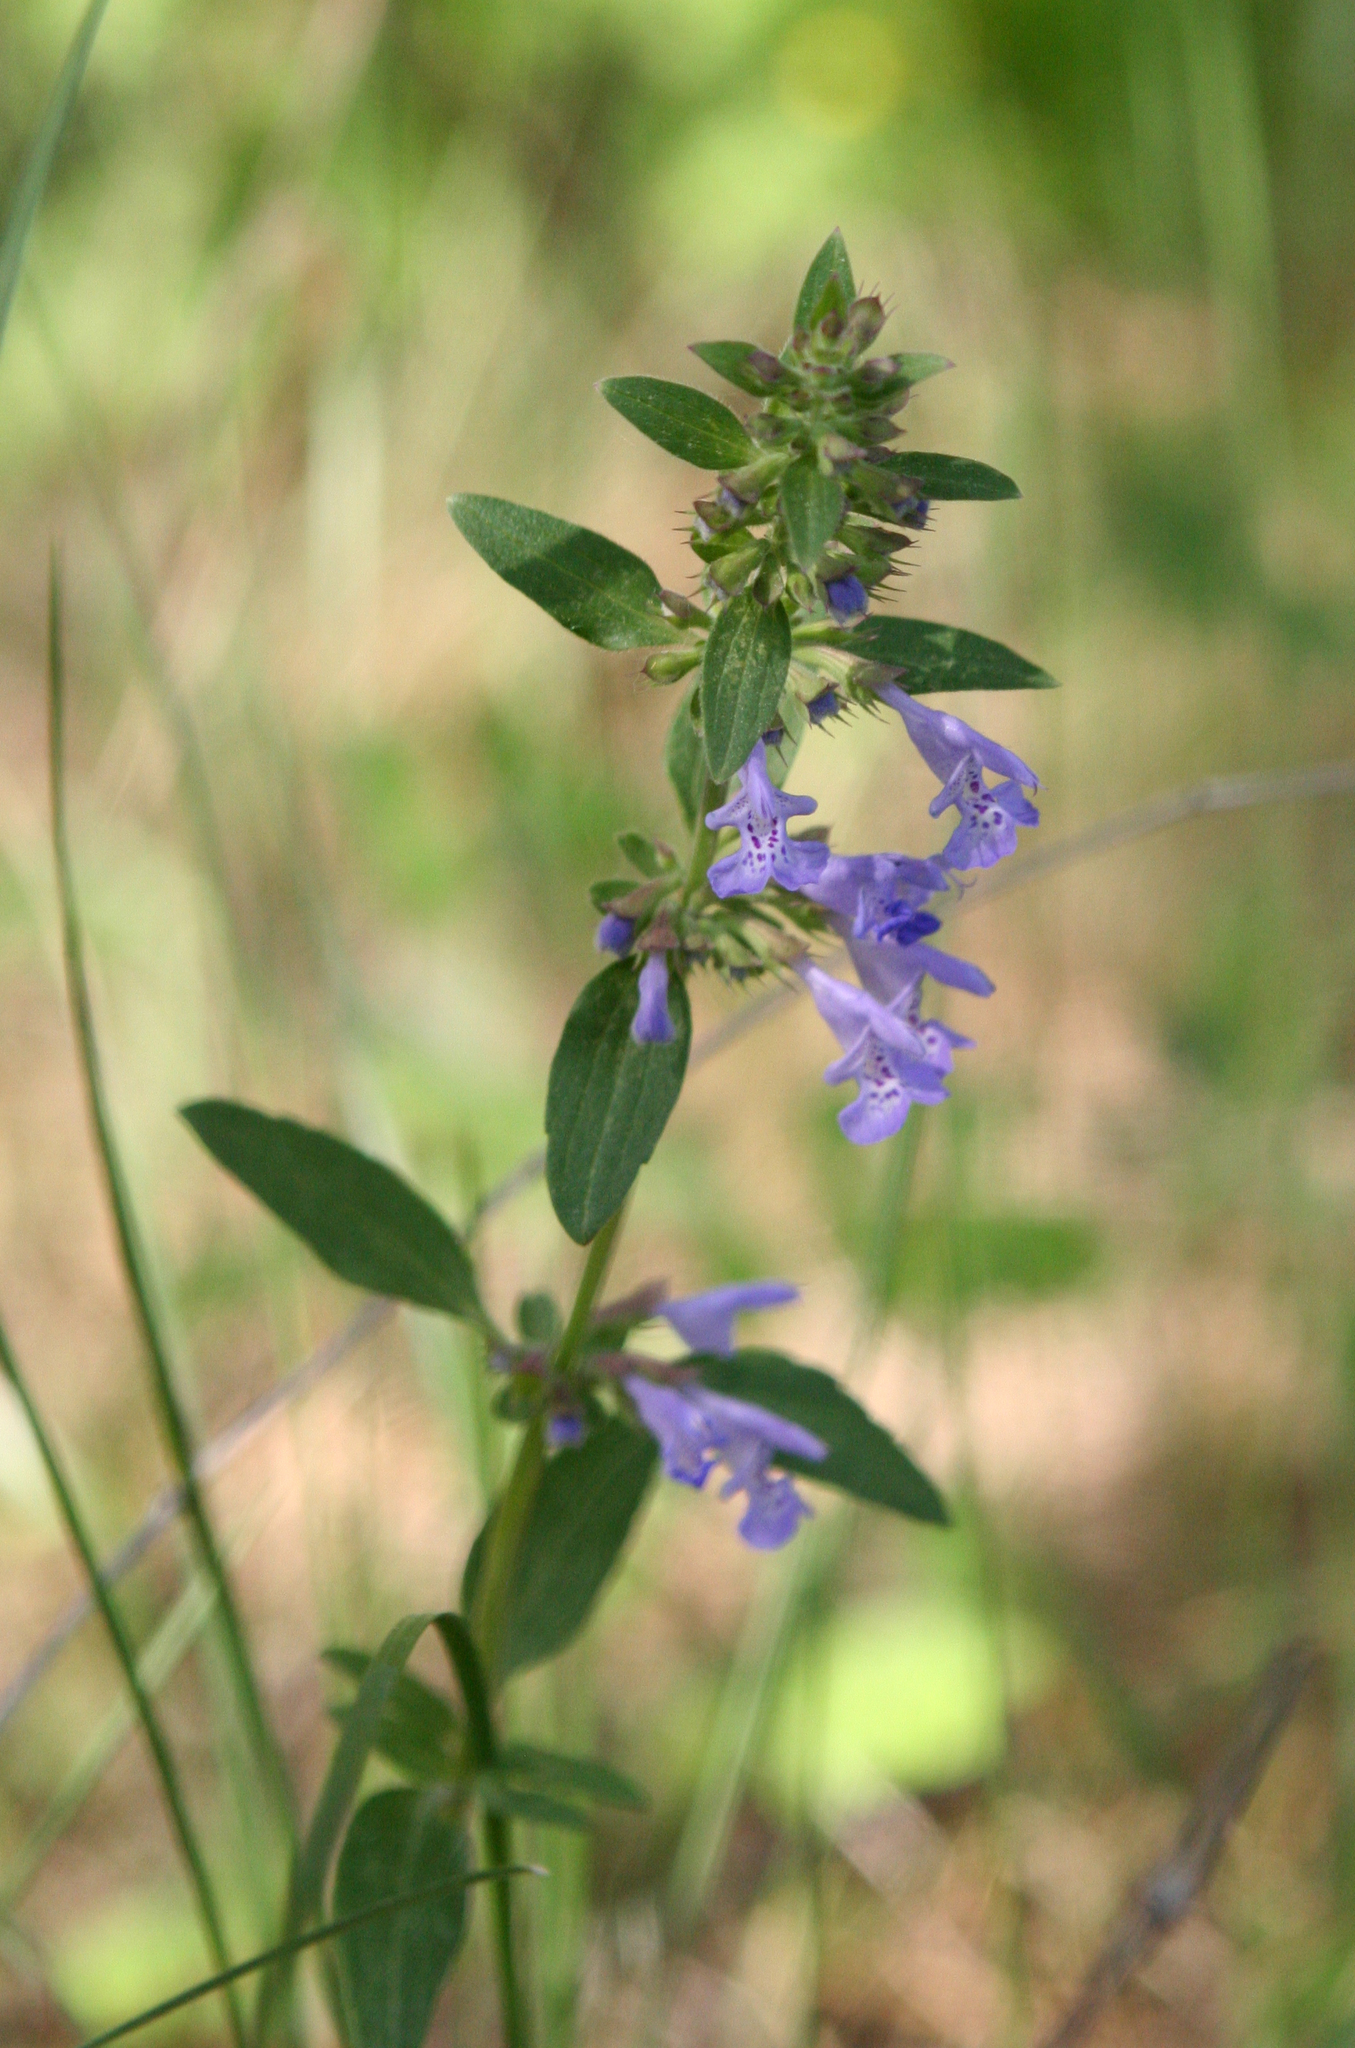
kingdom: Plantae
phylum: Tracheophyta
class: Magnoliopsida
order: Lamiales
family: Lamiaceae
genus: Dracocephalum
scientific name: Dracocephalum nutans
